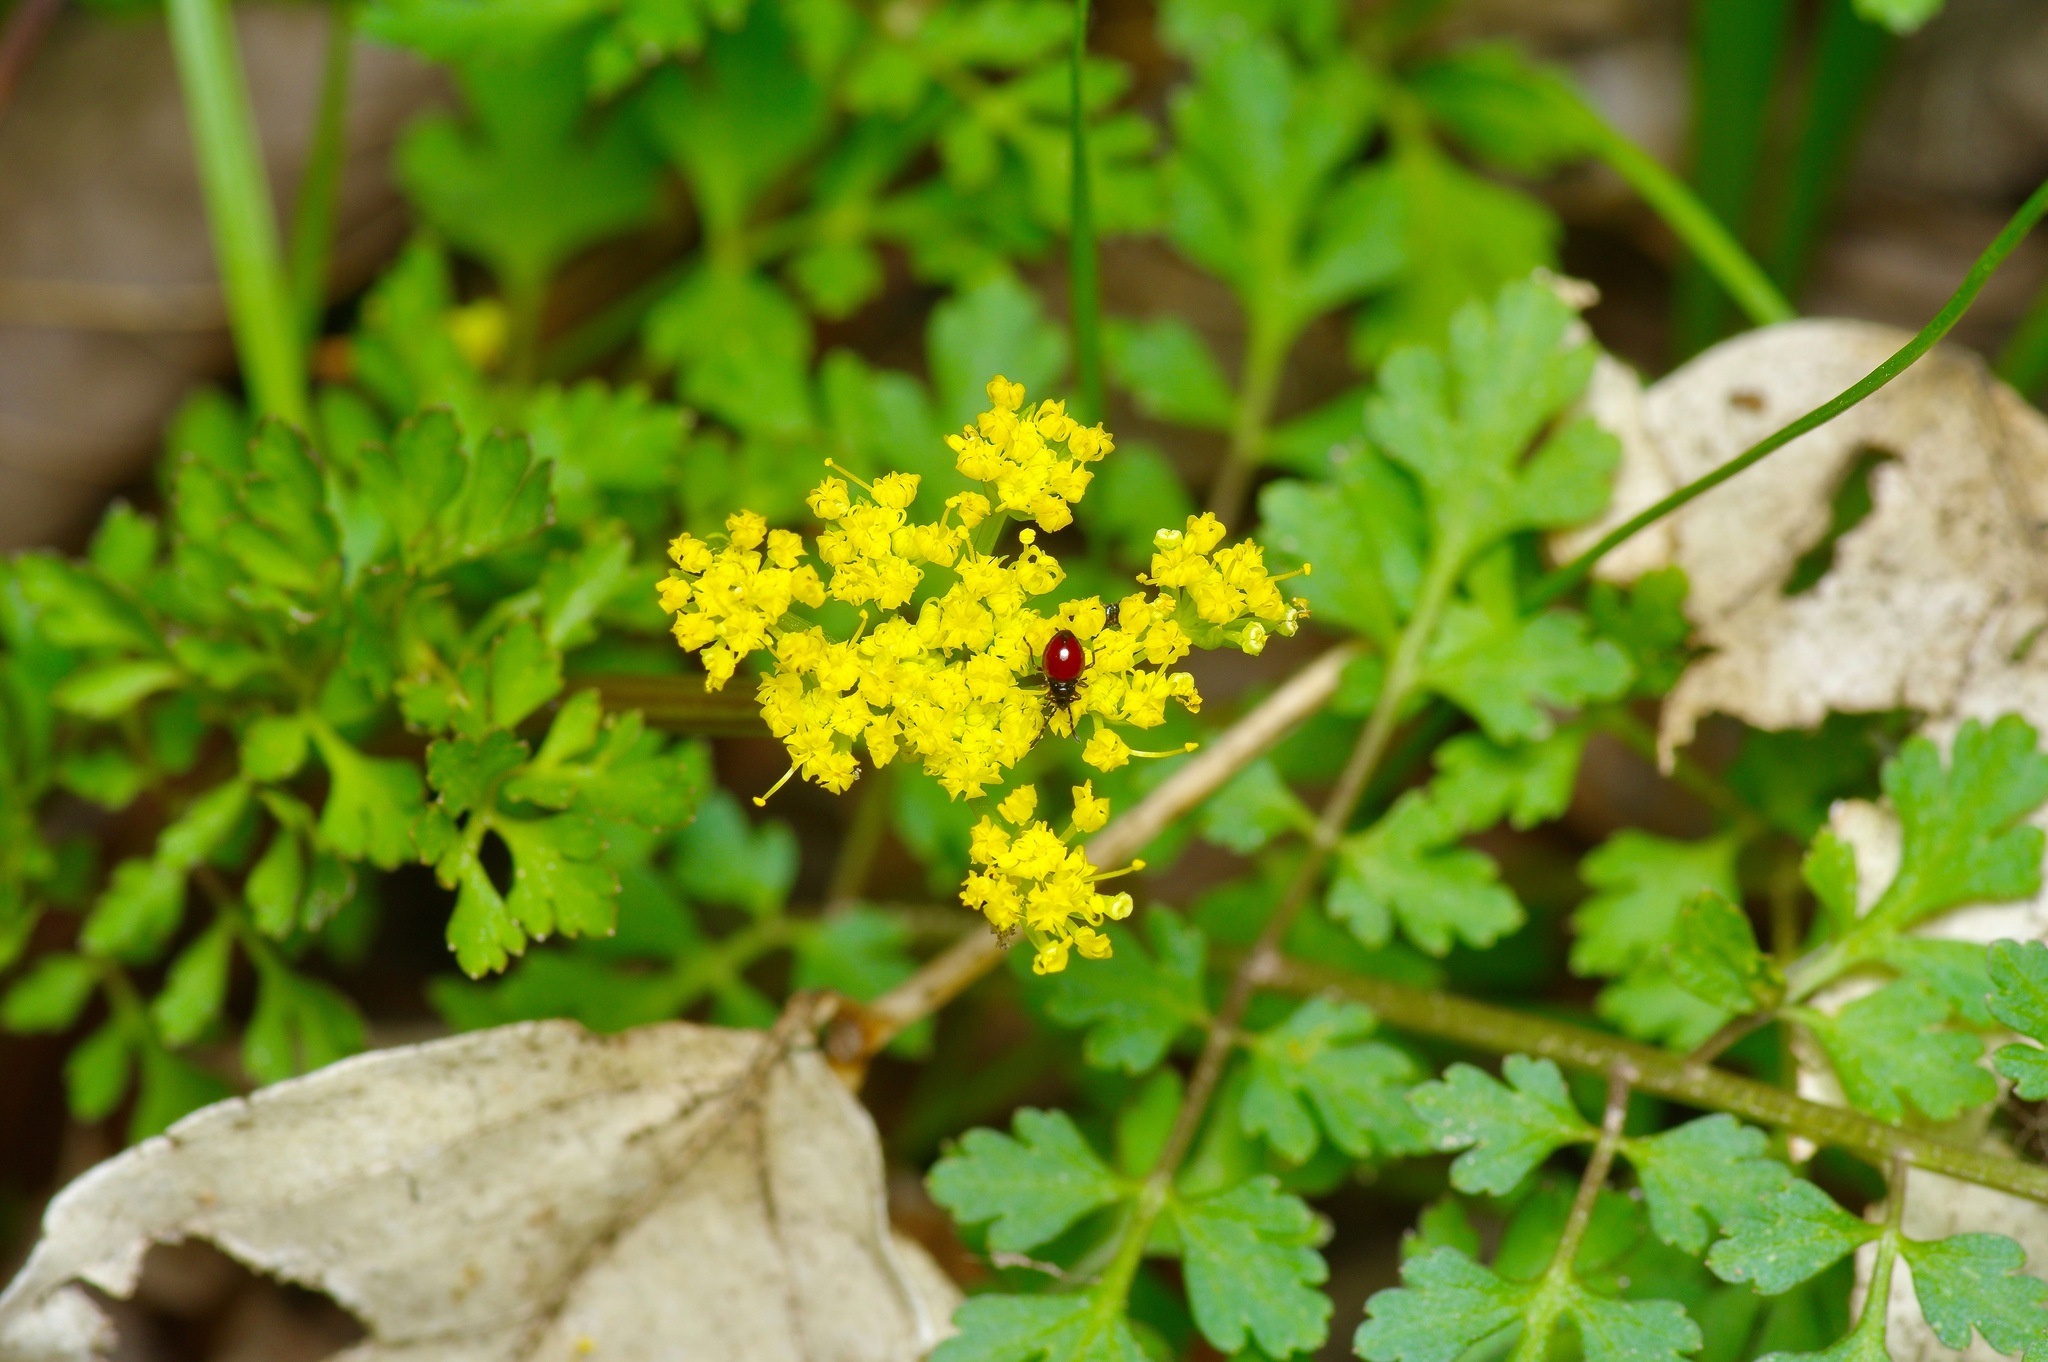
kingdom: Plantae
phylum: Tracheophyta
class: Magnoliopsida
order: Apiales
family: Apiaceae
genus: Tauschia
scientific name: Tauschia texana
